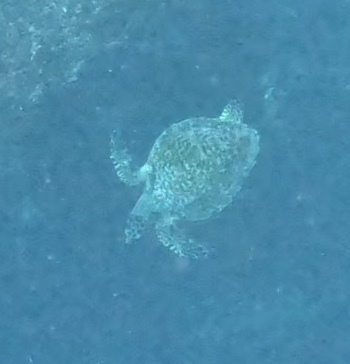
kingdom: Animalia
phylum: Chordata
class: Testudines
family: Cheloniidae
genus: Eretmochelys
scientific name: Eretmochelys imbricata
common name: Hawksbill turtle
